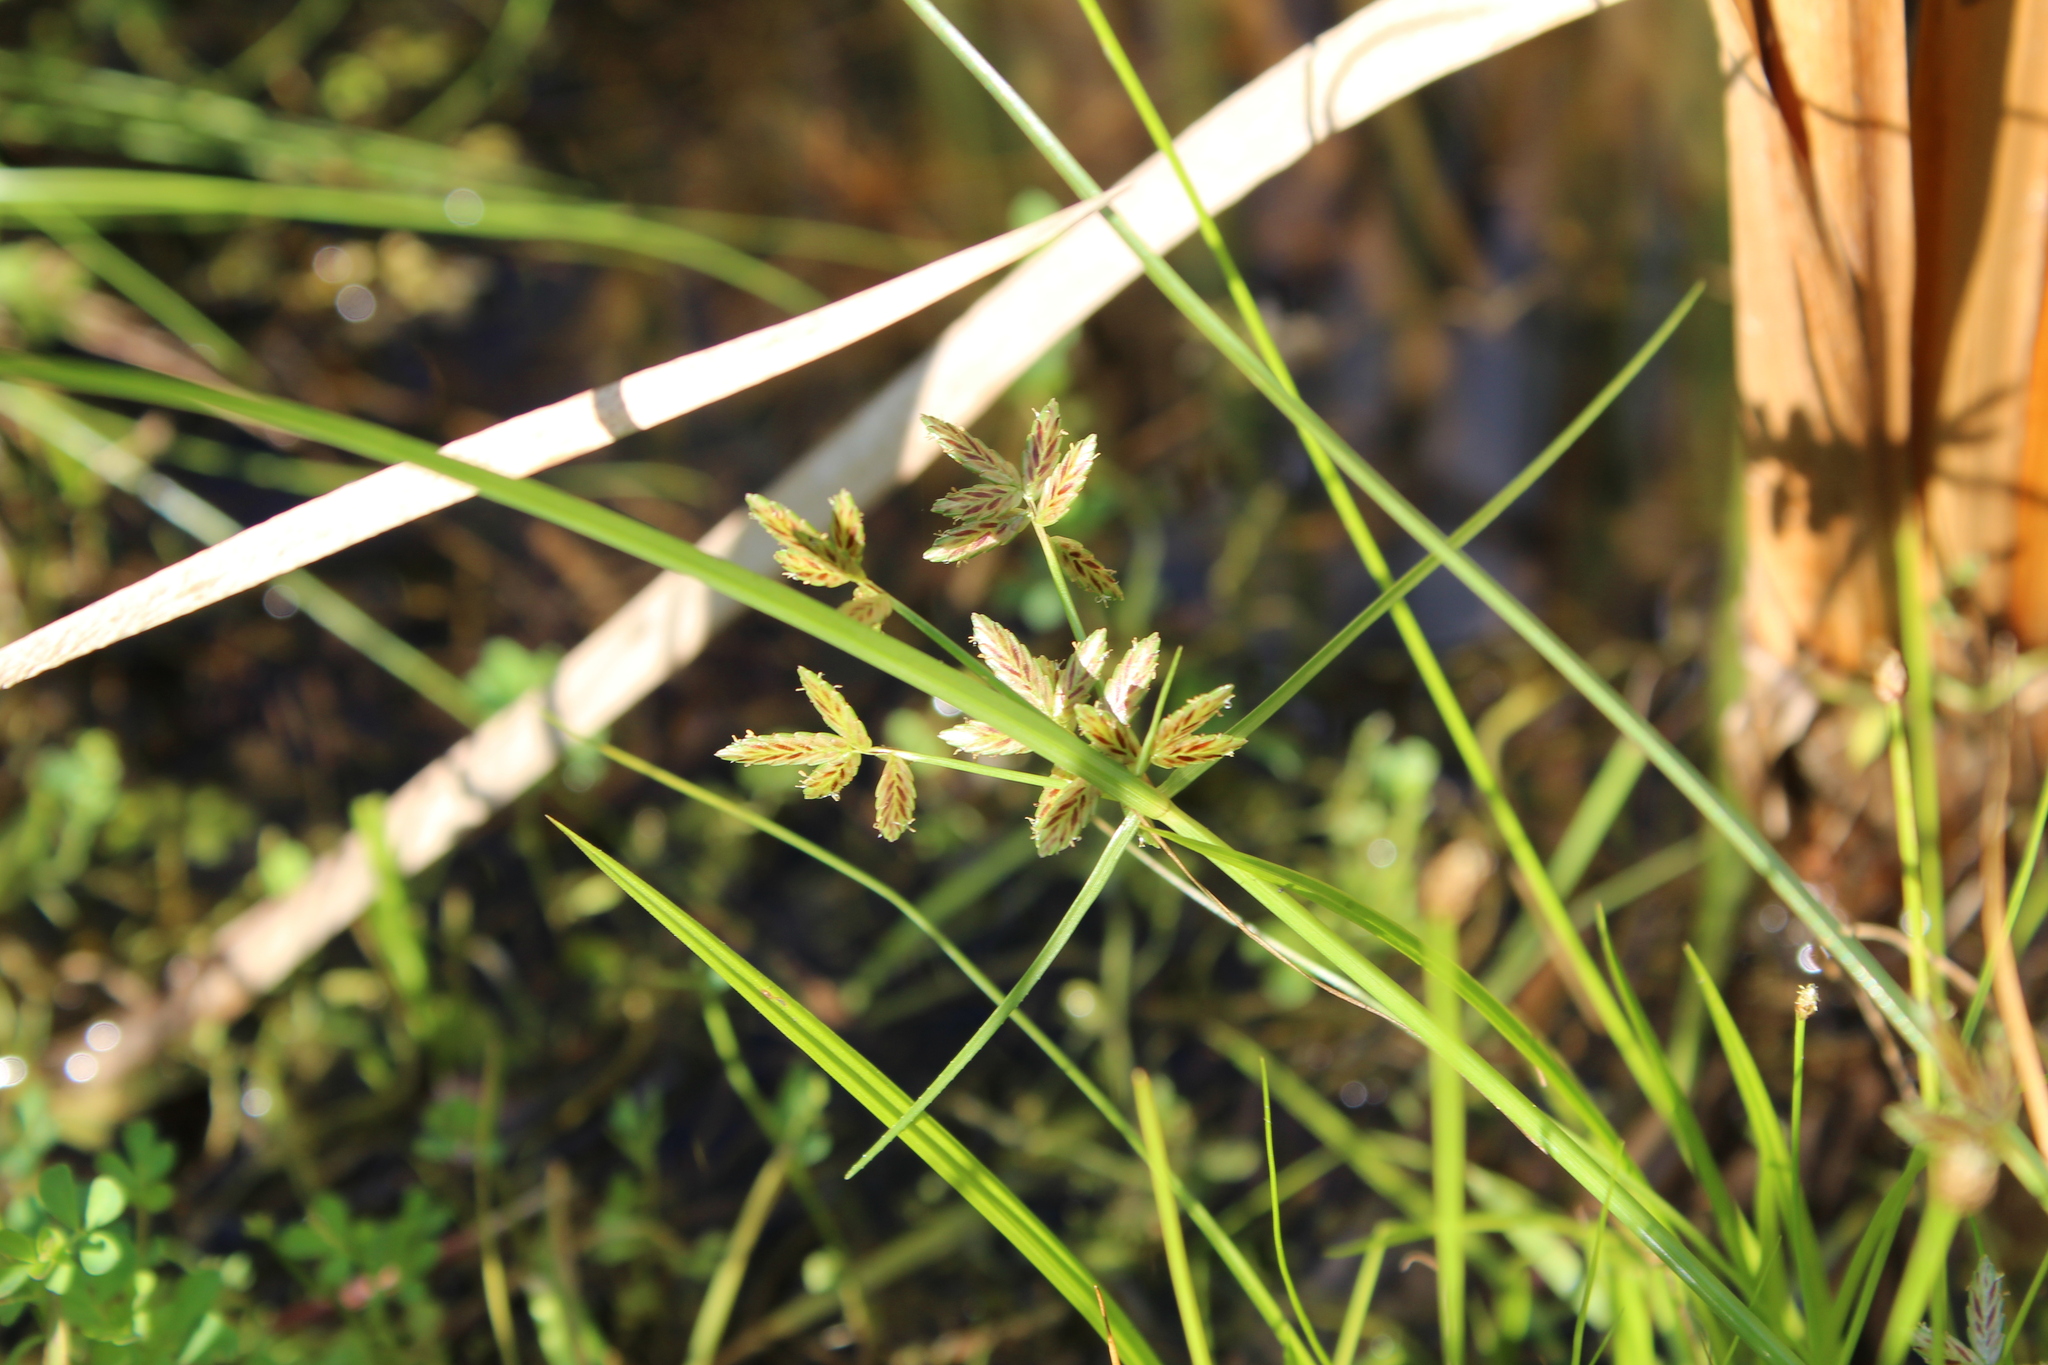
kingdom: Plantae
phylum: Tracheophyta
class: Liliopsida
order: Poales
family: Cyperaceae
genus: Cyperus
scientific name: Cyperus bipartitus
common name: Brook flatsedge
